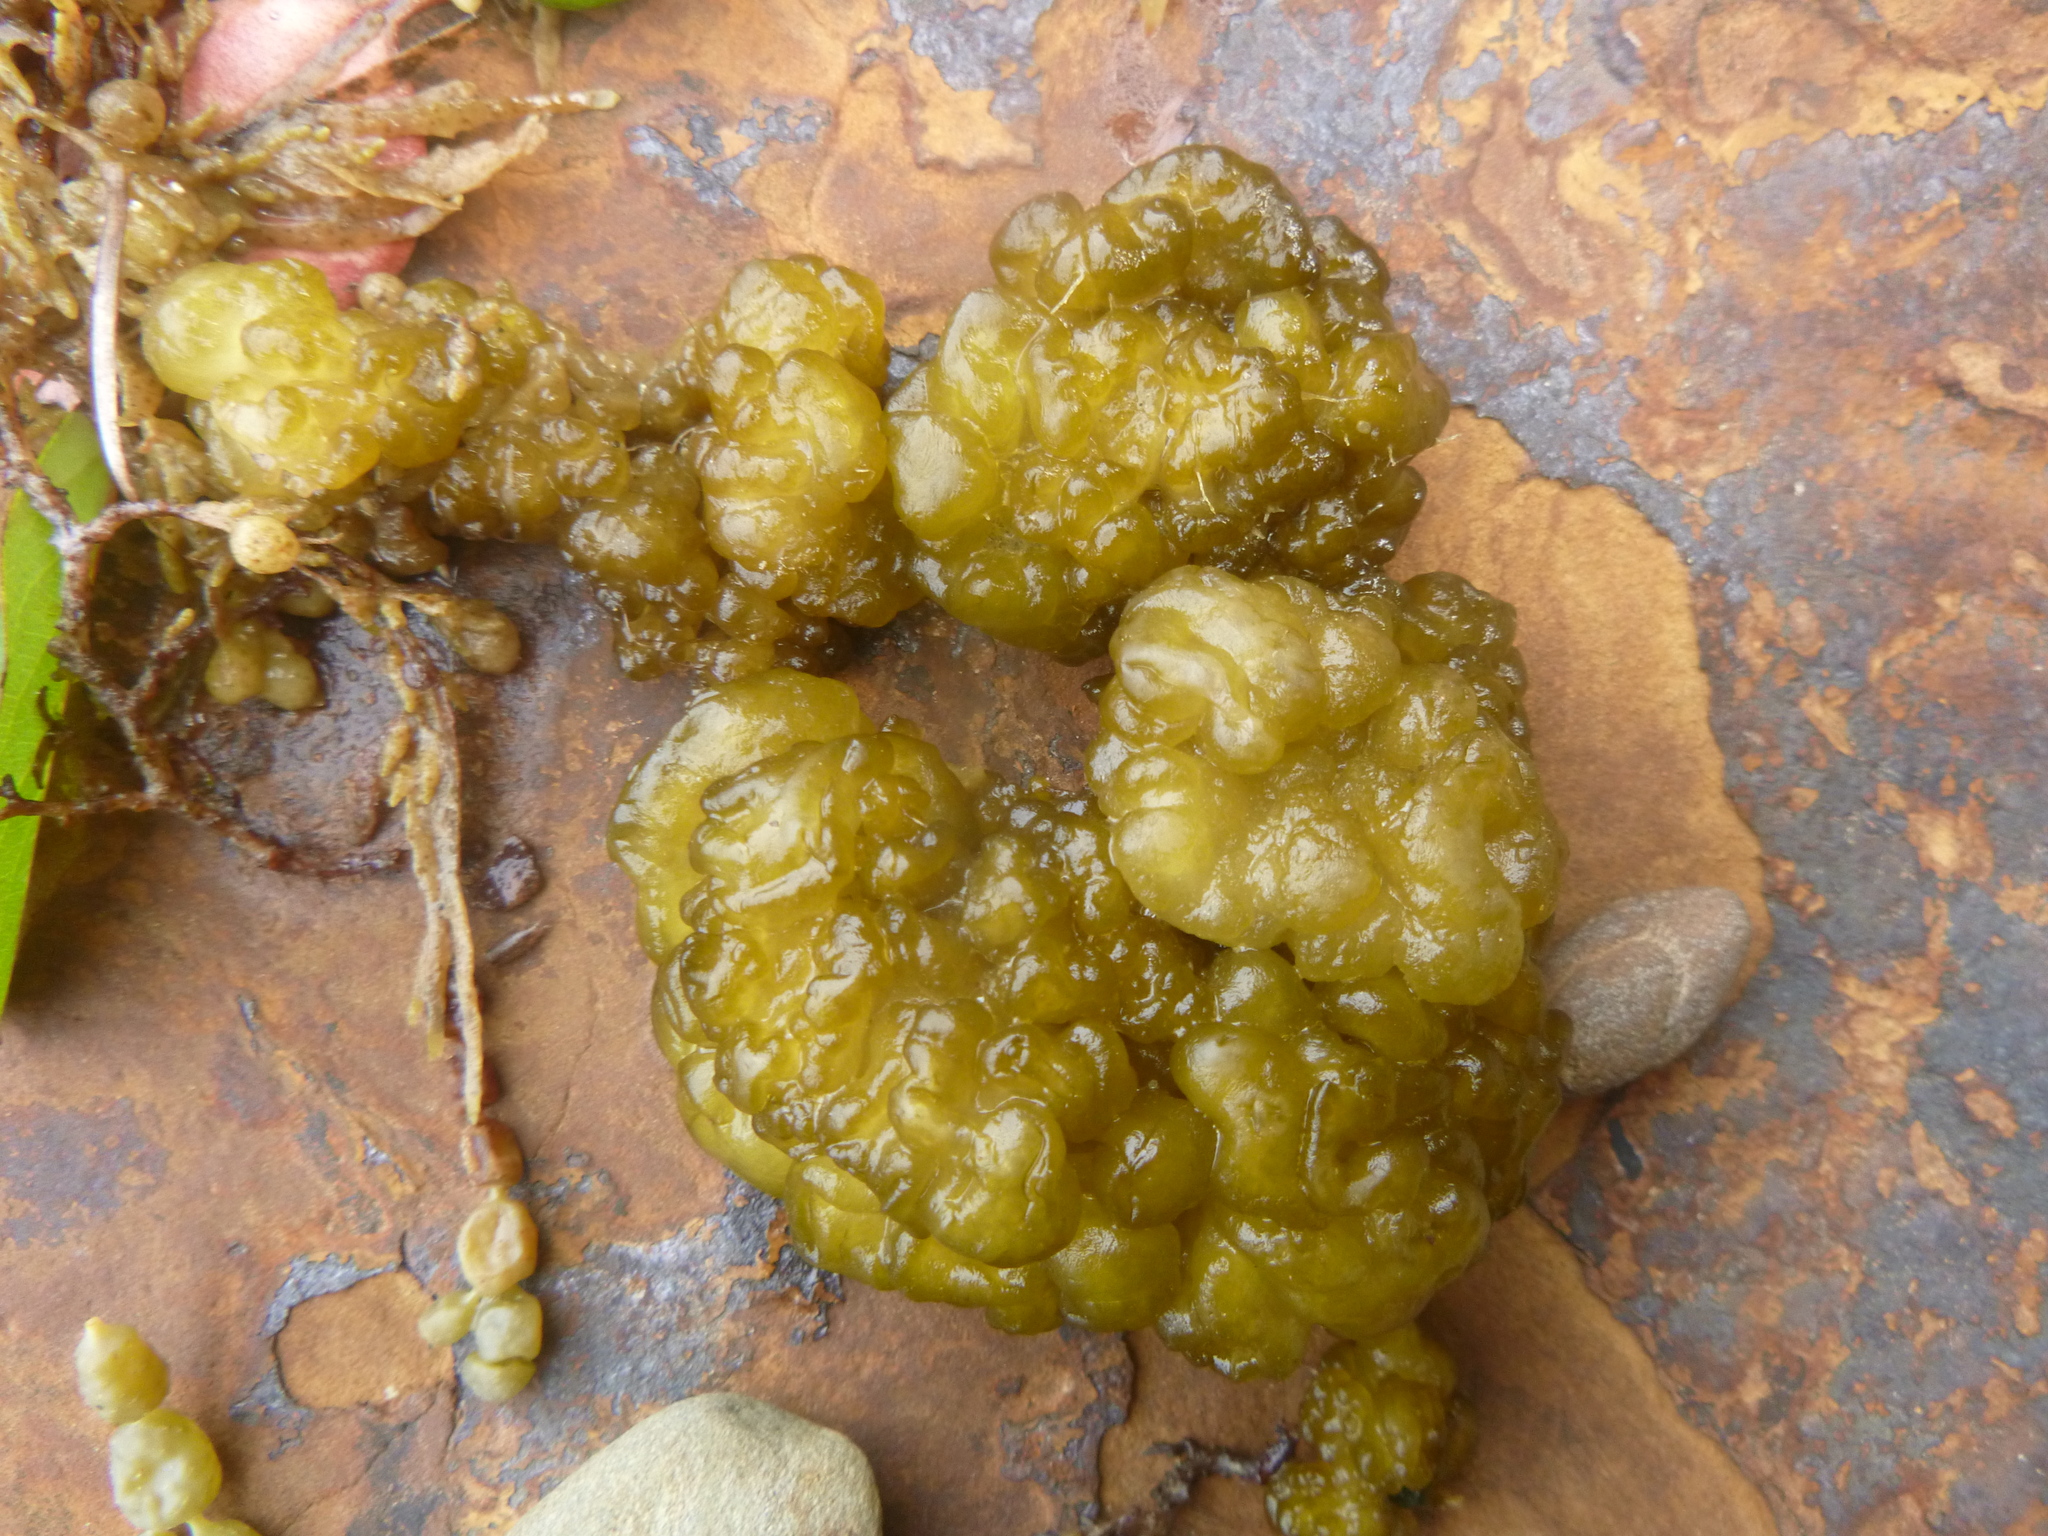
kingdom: Chromista
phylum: Ochrophyta
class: Phaeophyceae
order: Ectocarpales
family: Chordariaceae
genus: Leathesia
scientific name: Leathesia marina
